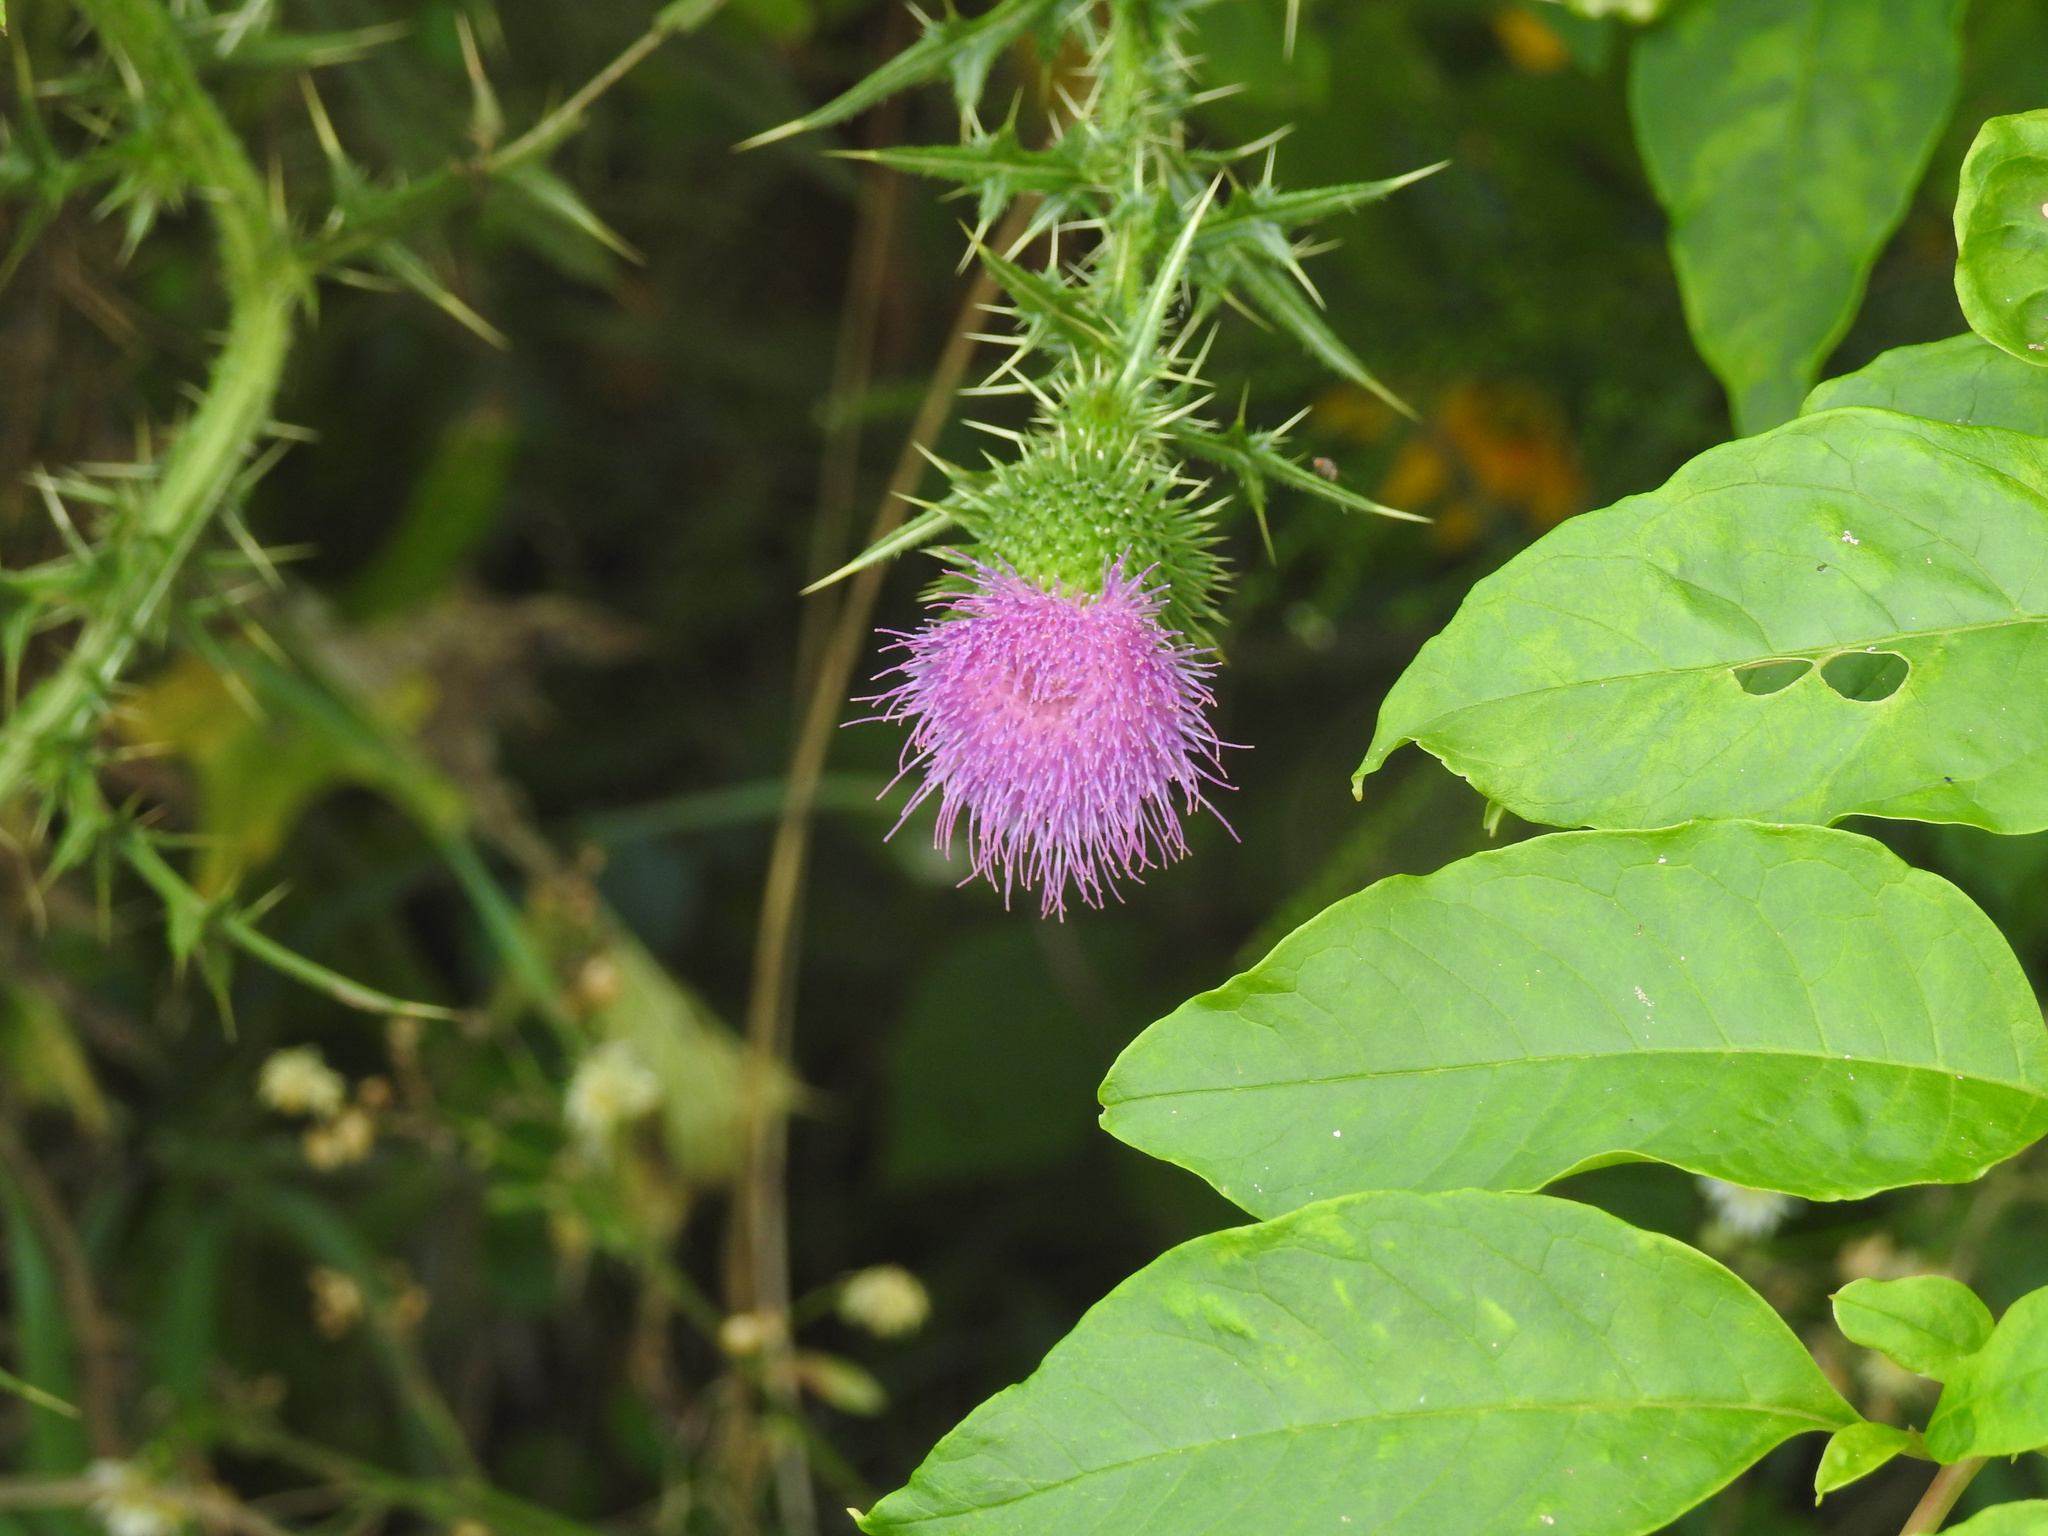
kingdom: Plantae
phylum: Tracheophyta
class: Magnoliopsida
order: Asterales
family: Asteraceae
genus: Cirsium
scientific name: Cirsium vulgare
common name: Bull thistle
